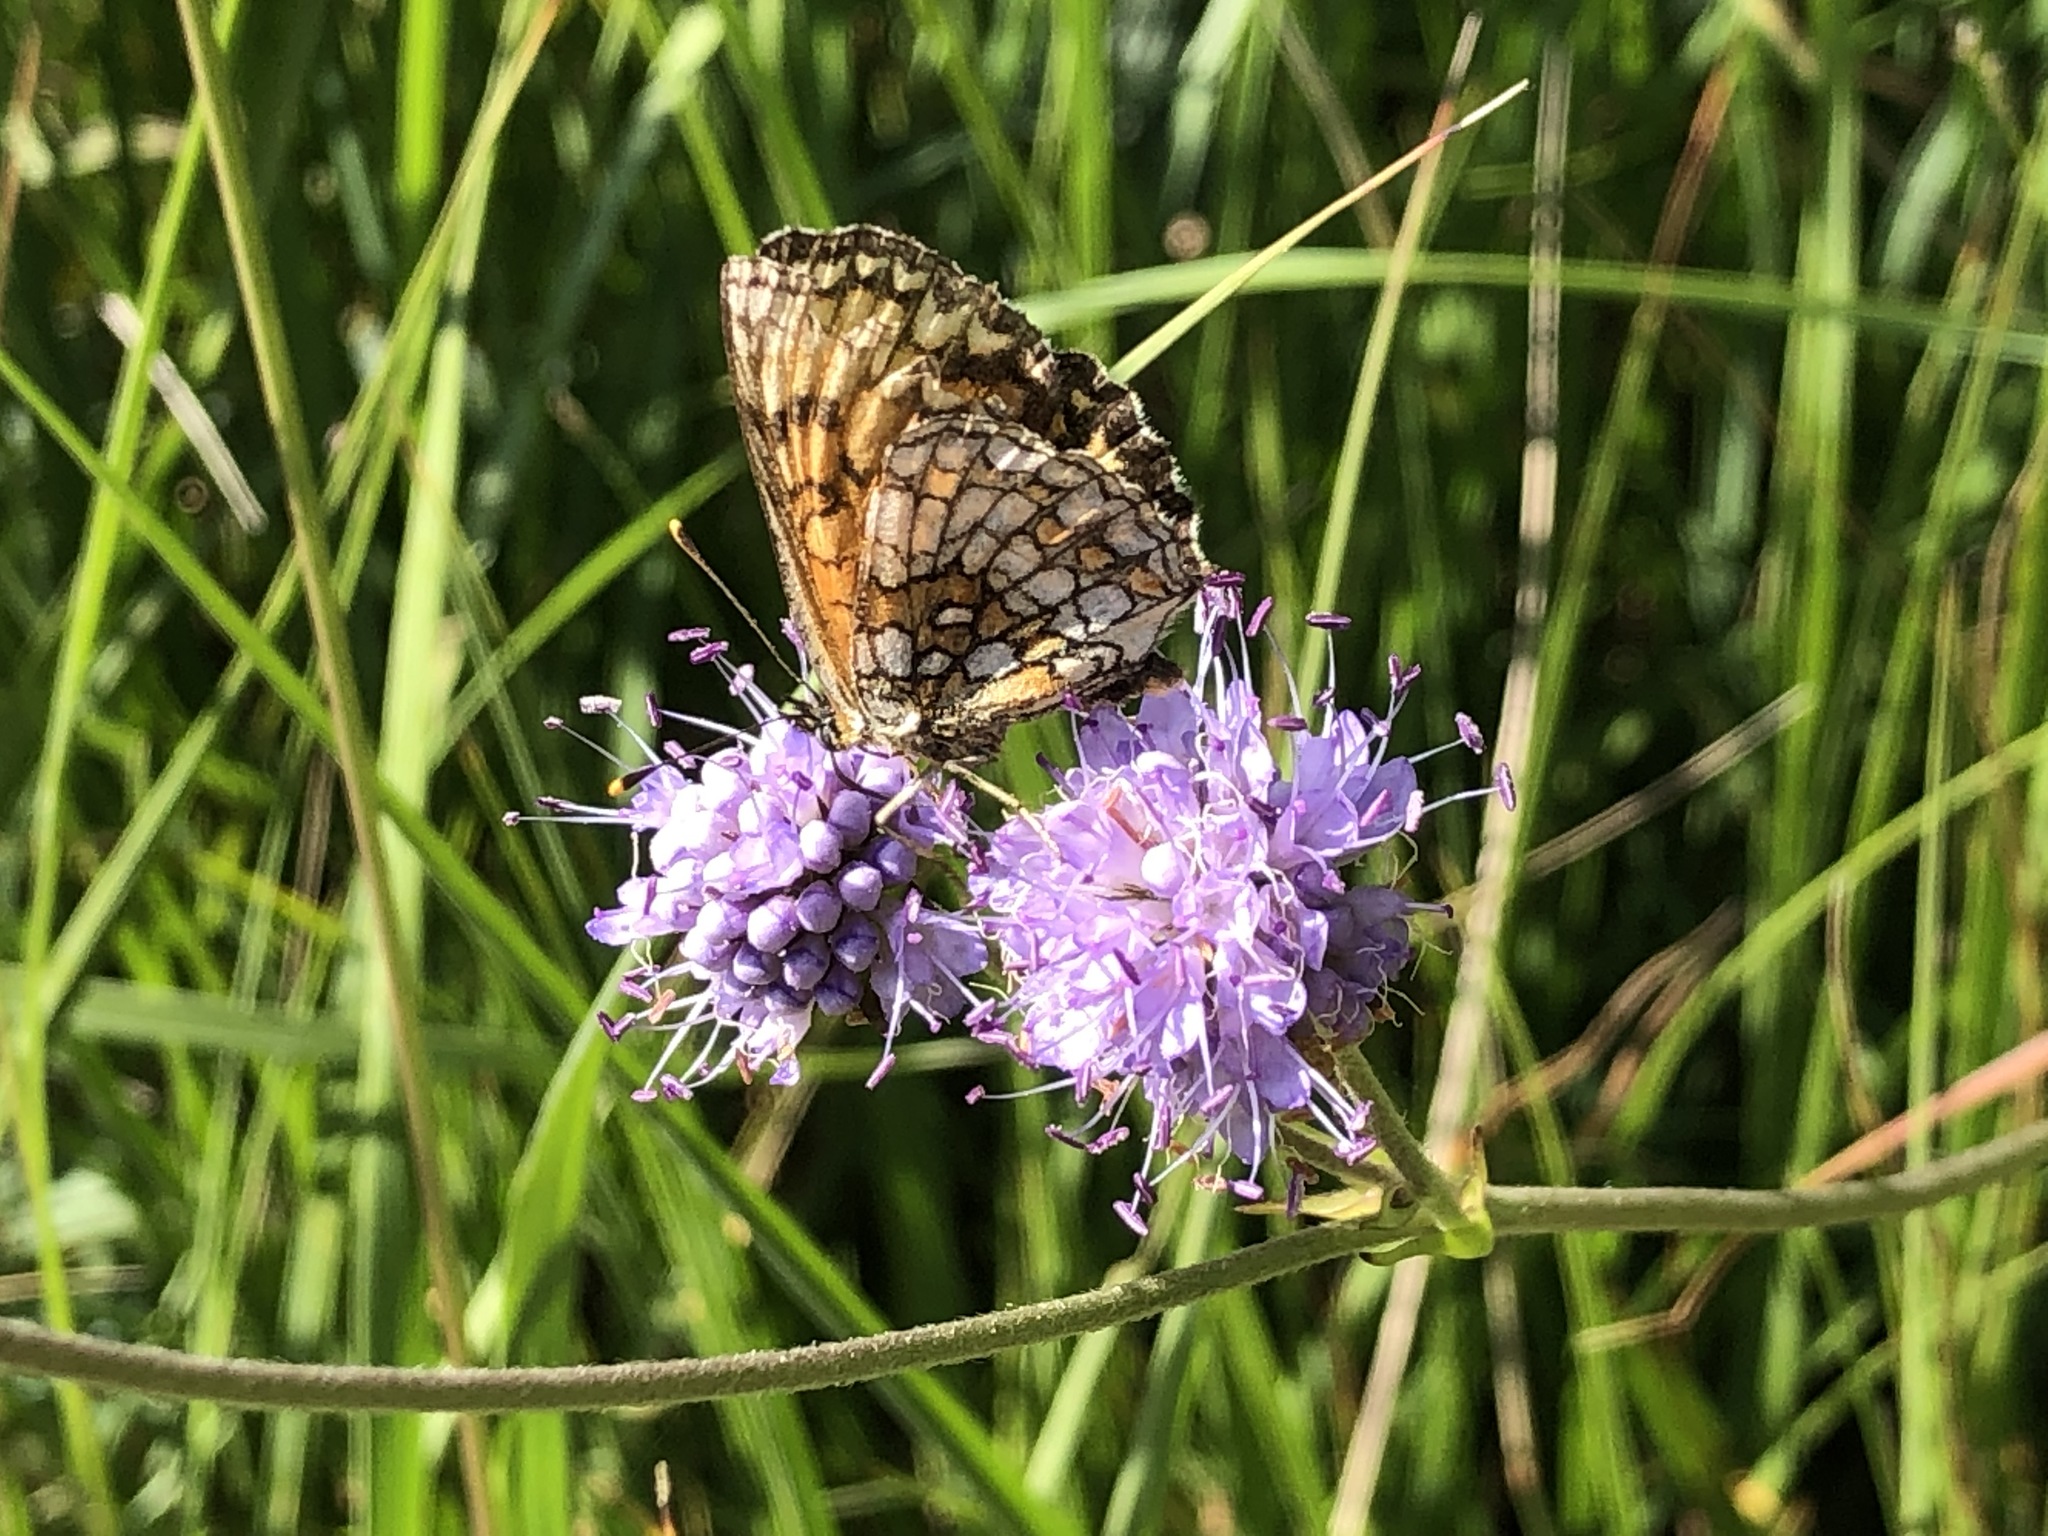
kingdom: Animalia
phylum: Arthropoda
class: Insecta
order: Lepidoptera
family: Nymphalidae
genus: Melitaea
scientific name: Melitaea athalia
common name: Heath fritillary
